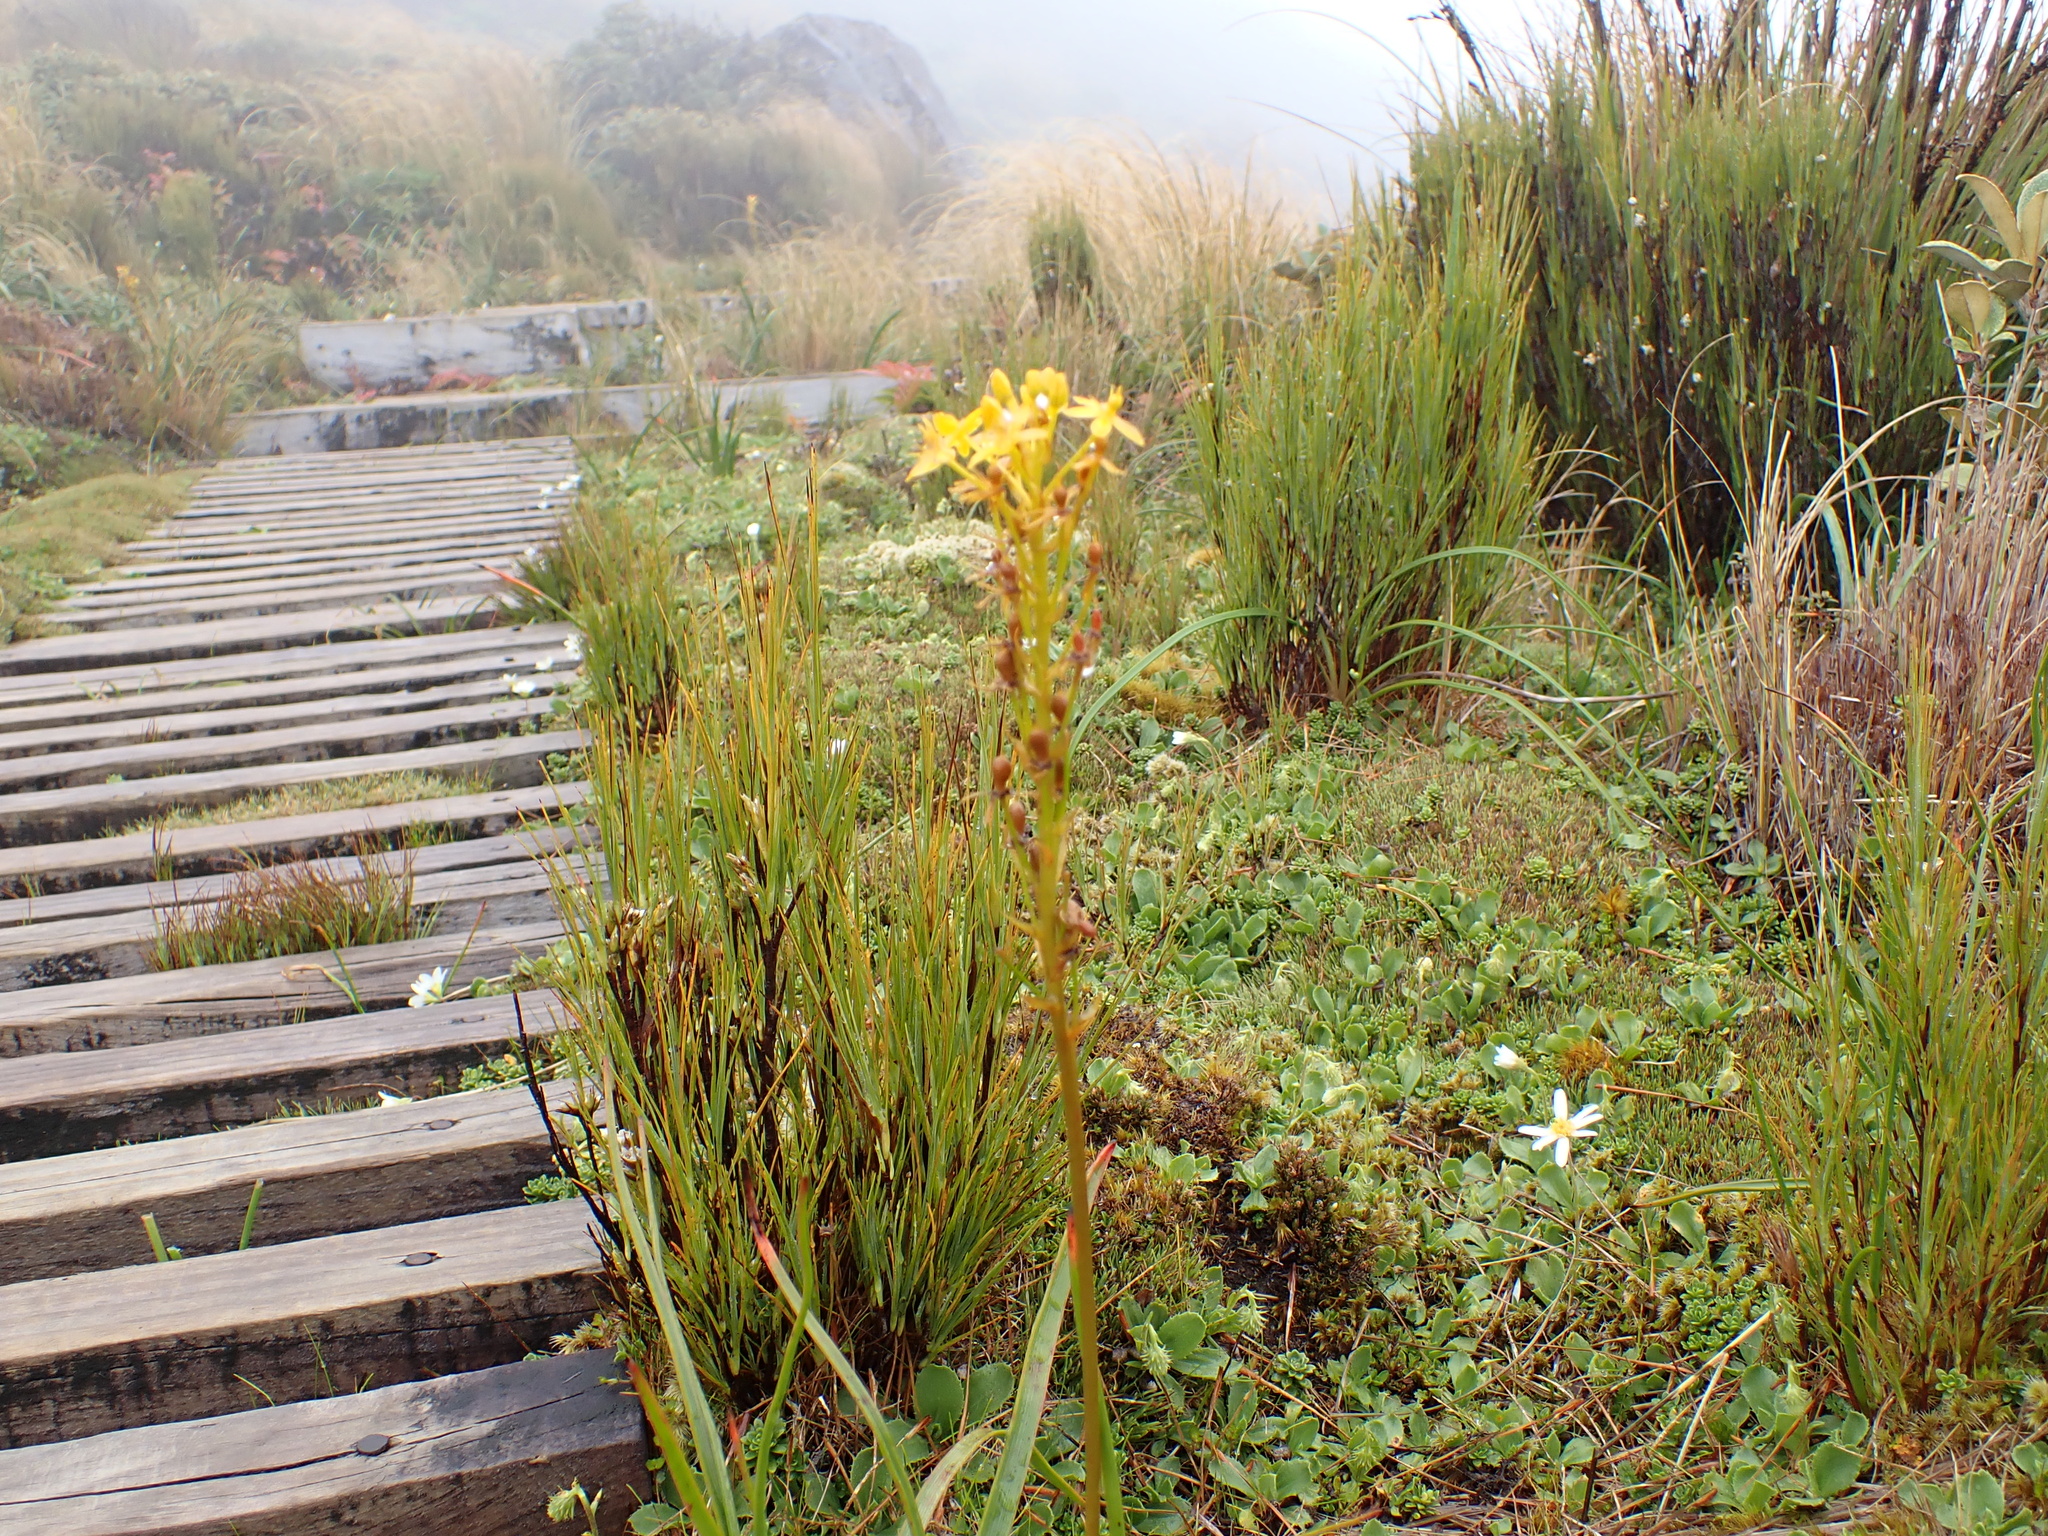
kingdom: Plantae
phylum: Tracheophyta
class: Liliopsida
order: Asparagales
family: Asphodelaceae
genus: Bulbinella
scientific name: Bulbinella hookeri
